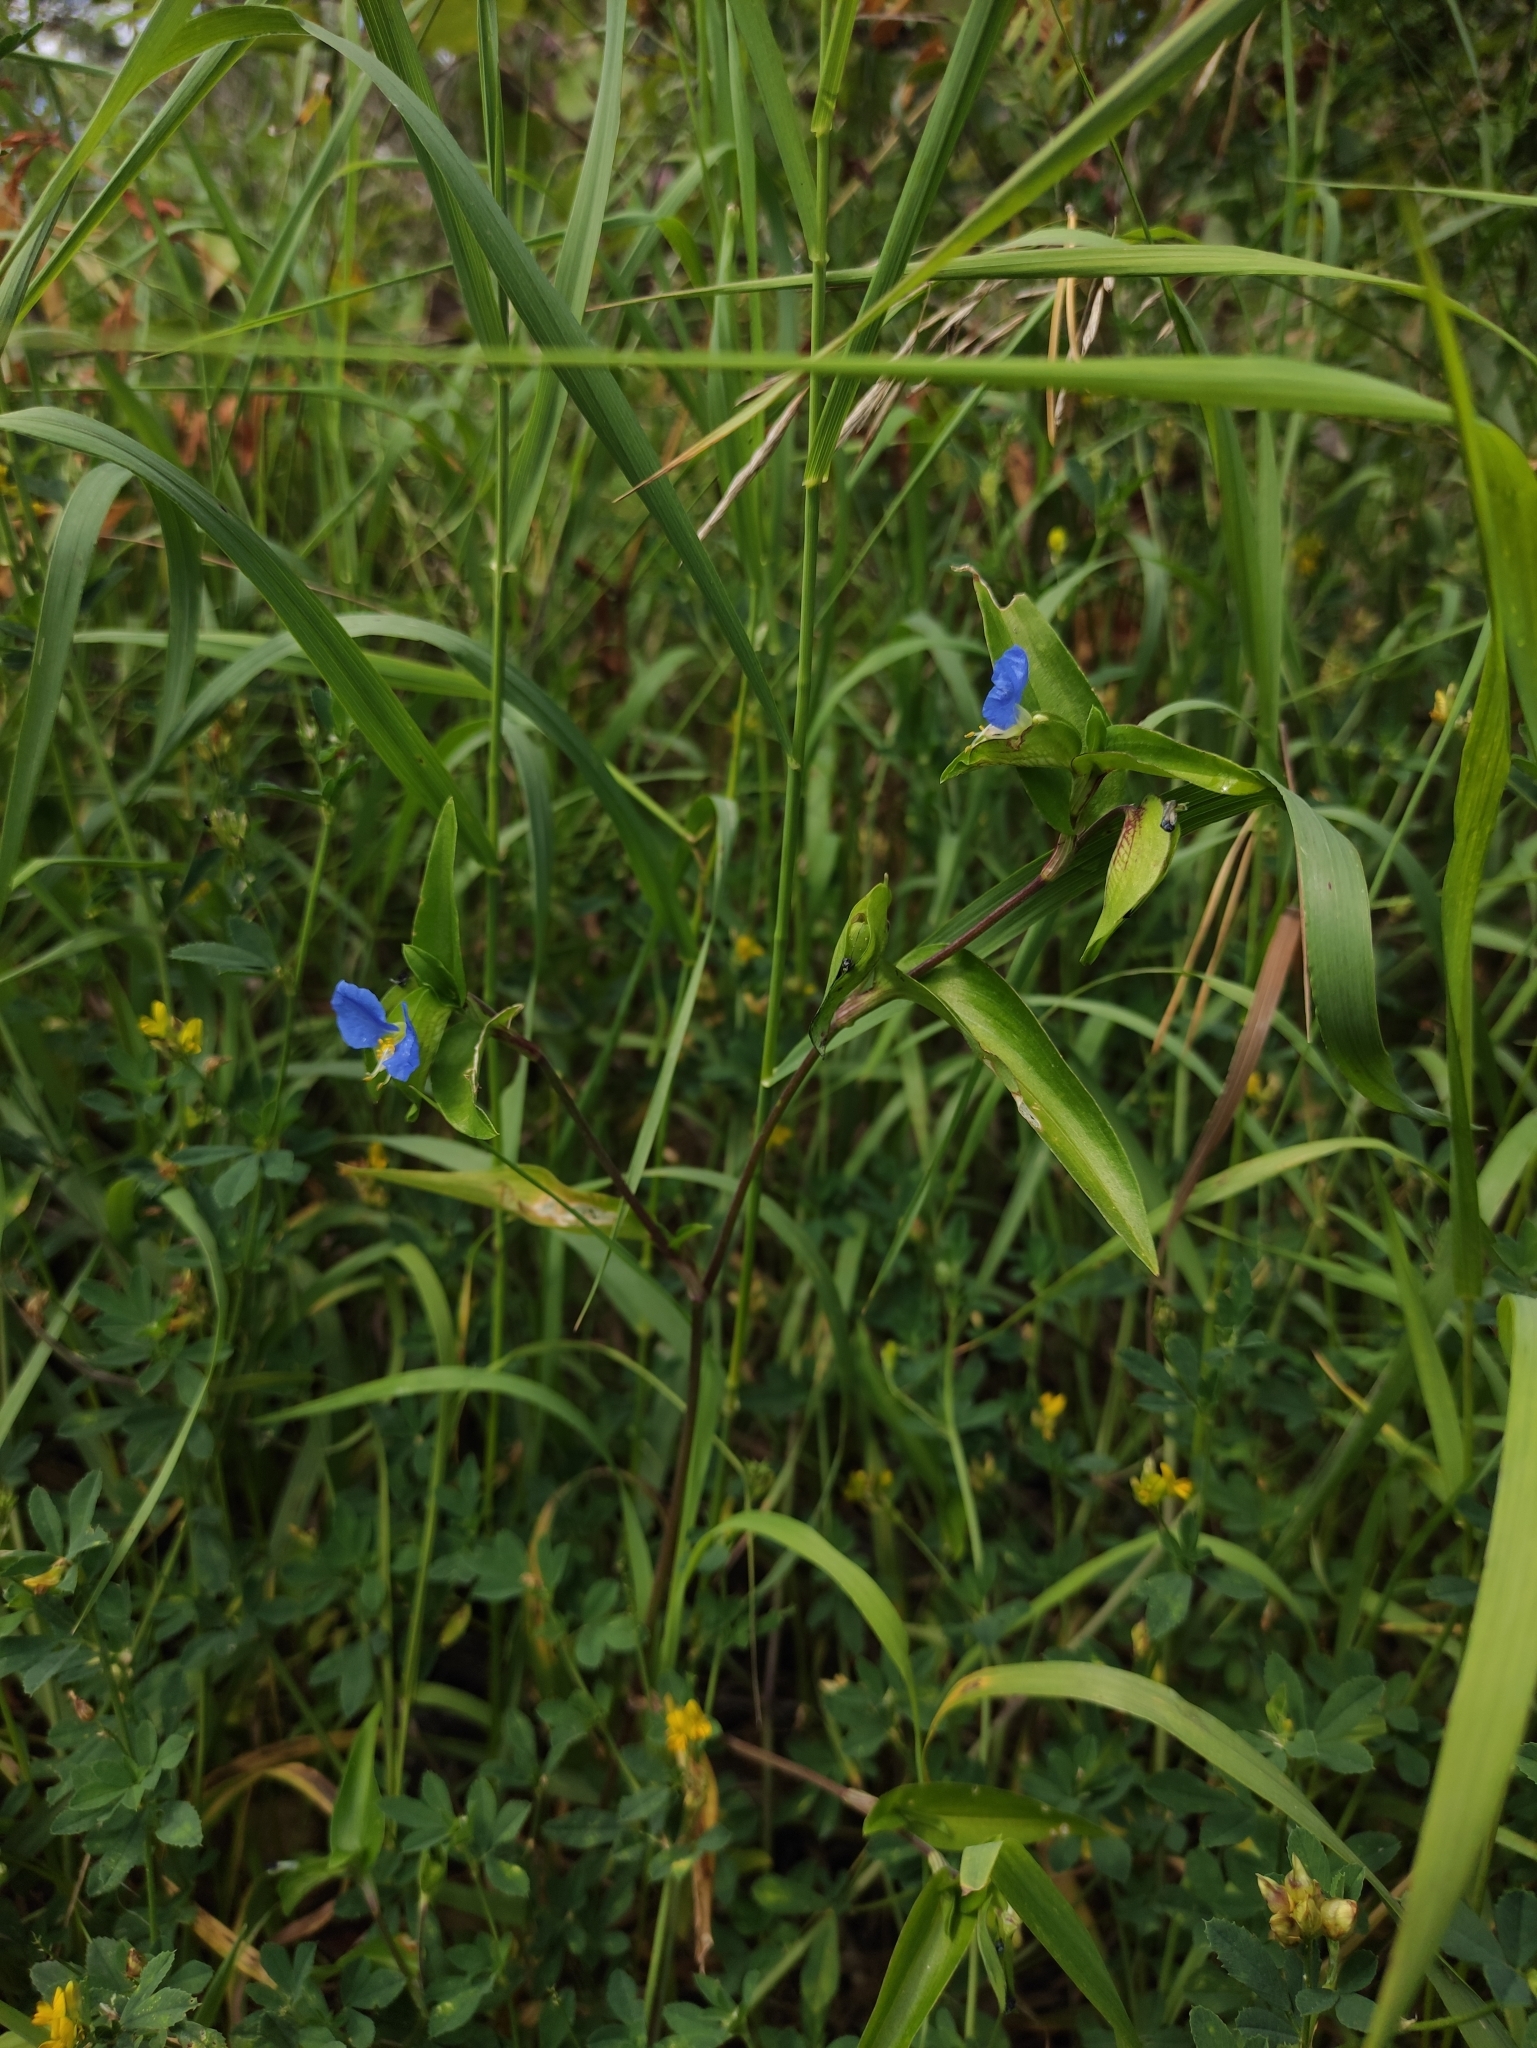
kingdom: Plantae
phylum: Tracheophyta
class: Liliopsida
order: Commelinales
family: Commelinaceae
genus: Commelina
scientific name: Commelina communis
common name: Asiatic dayflower
